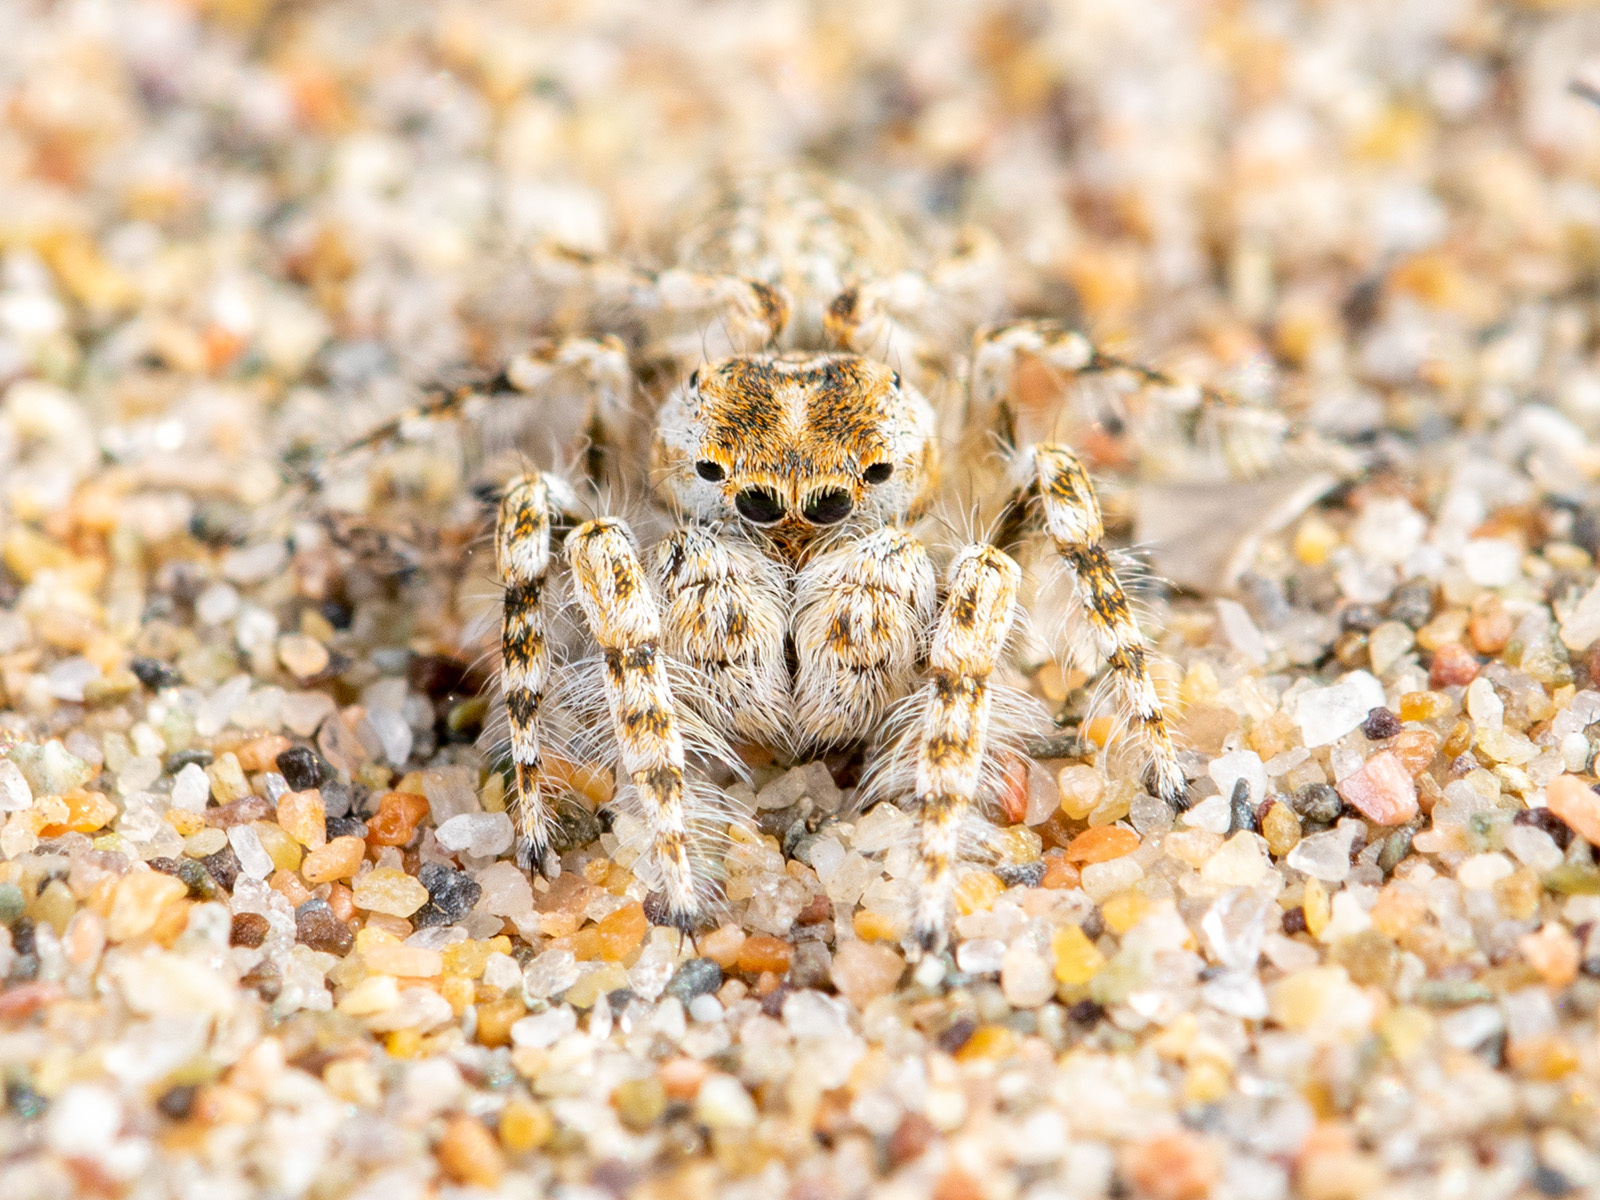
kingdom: Animalia
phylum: Arthropoda
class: Arachnida
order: Araneae
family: Salticidae
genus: Yllenus
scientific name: Yllenus turkestanicus
